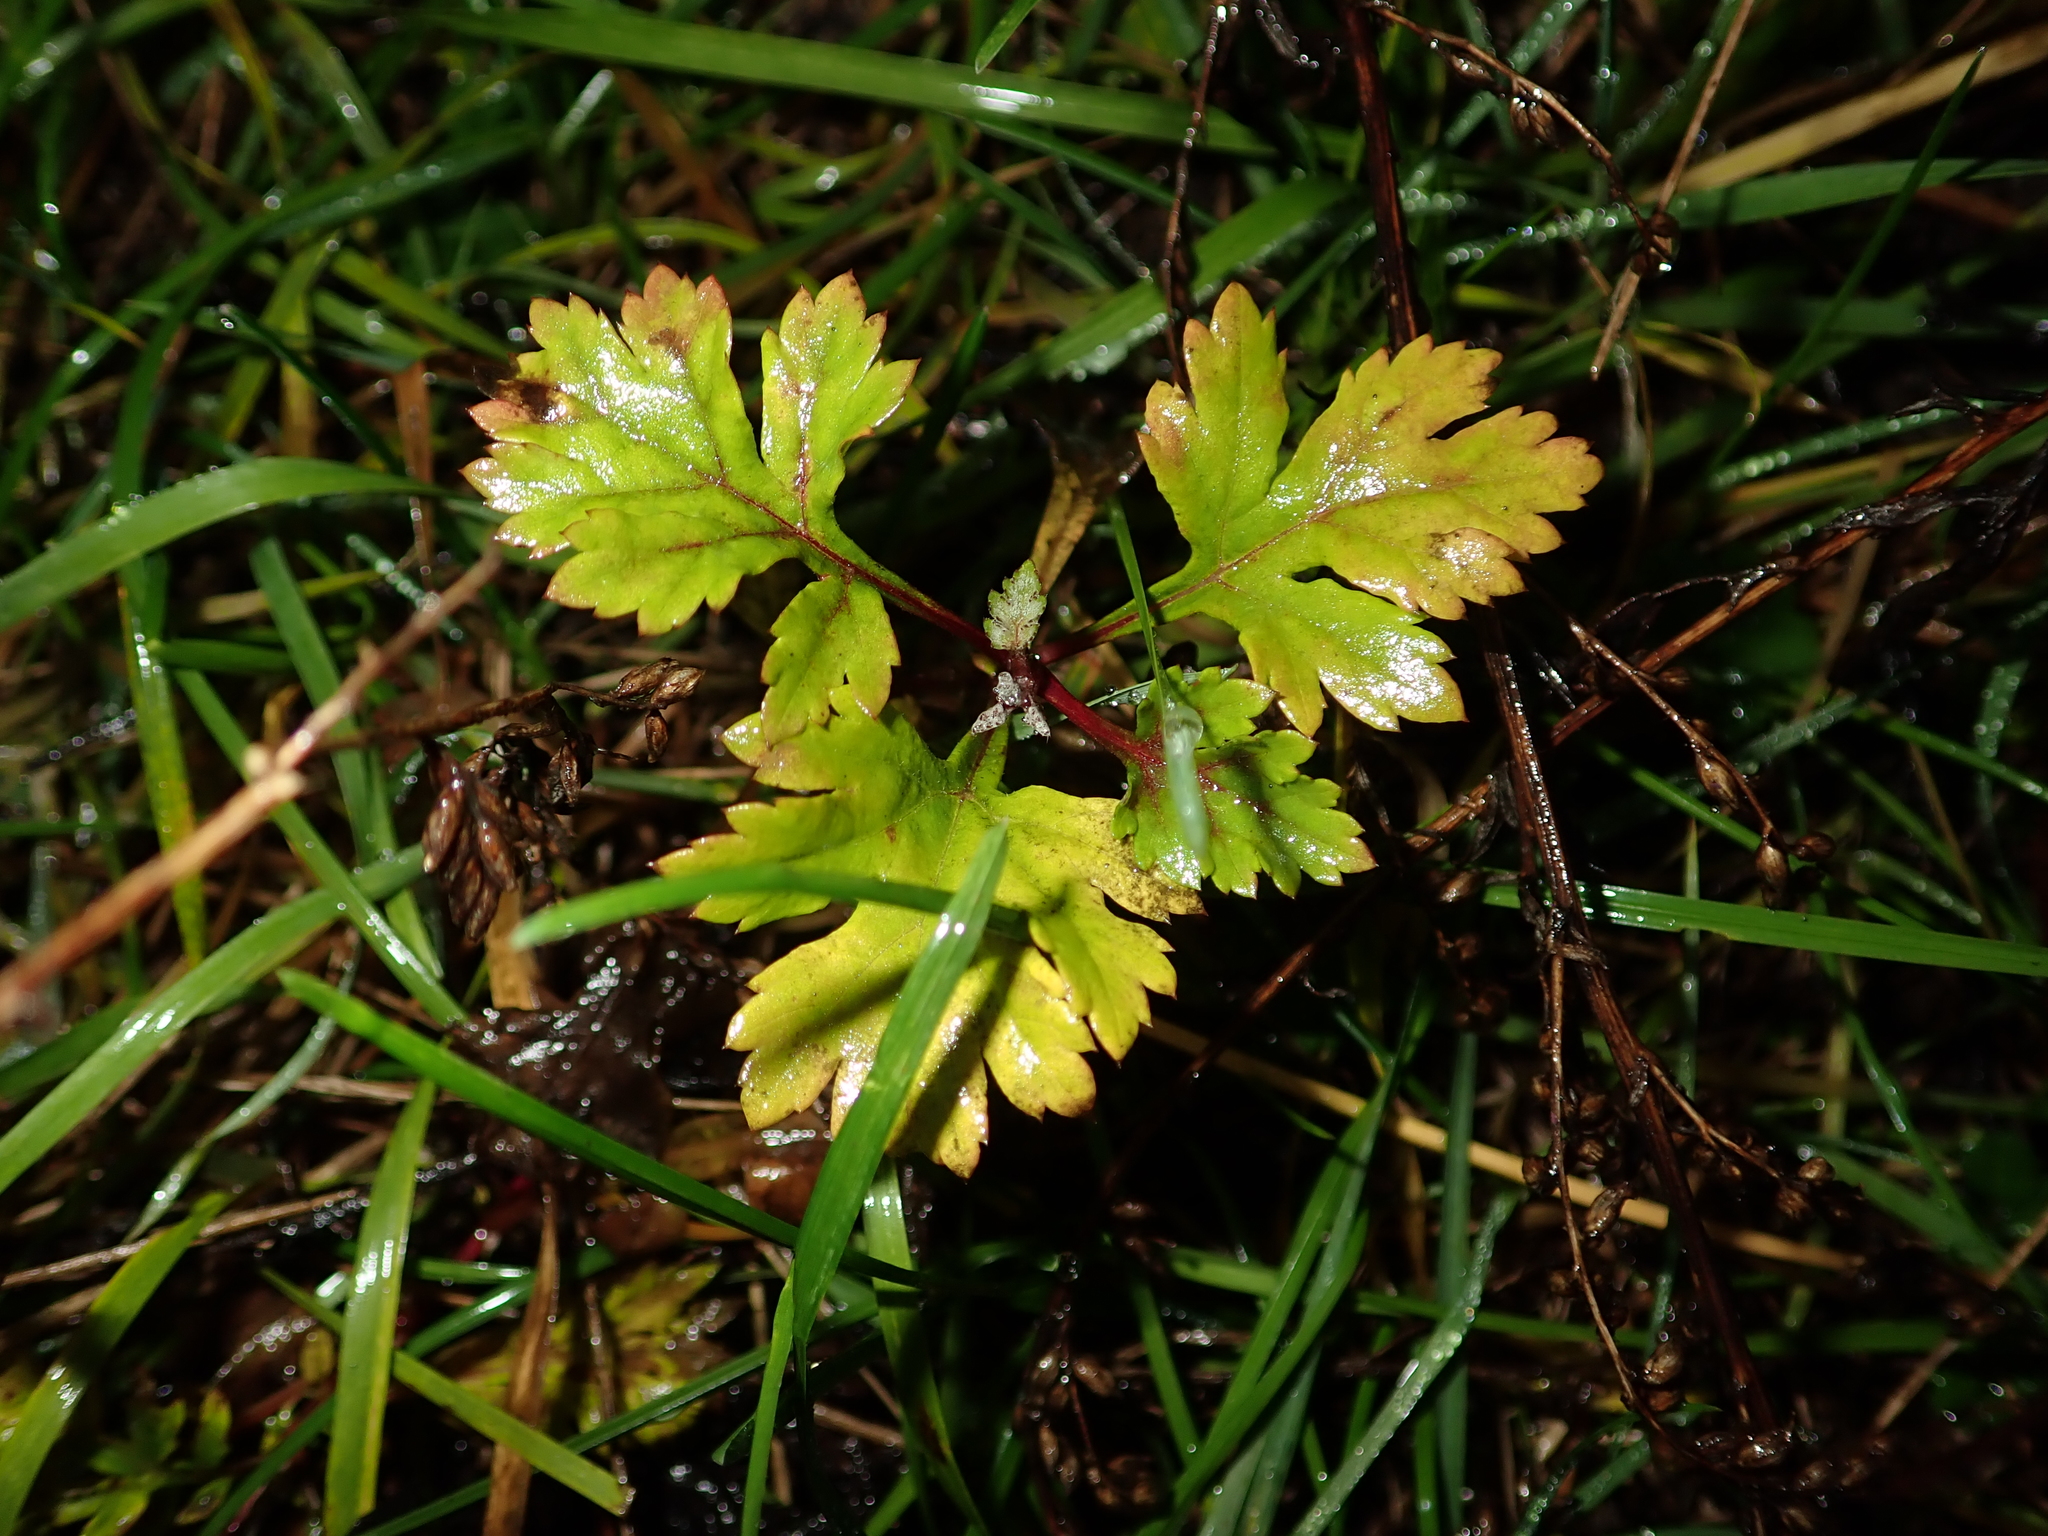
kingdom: Plantae
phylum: Tracheophyta
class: Magnoliopsida
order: Asterales
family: Asteraceae
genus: Artemisia
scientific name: Artemisia vulgaris
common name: Mugwort
